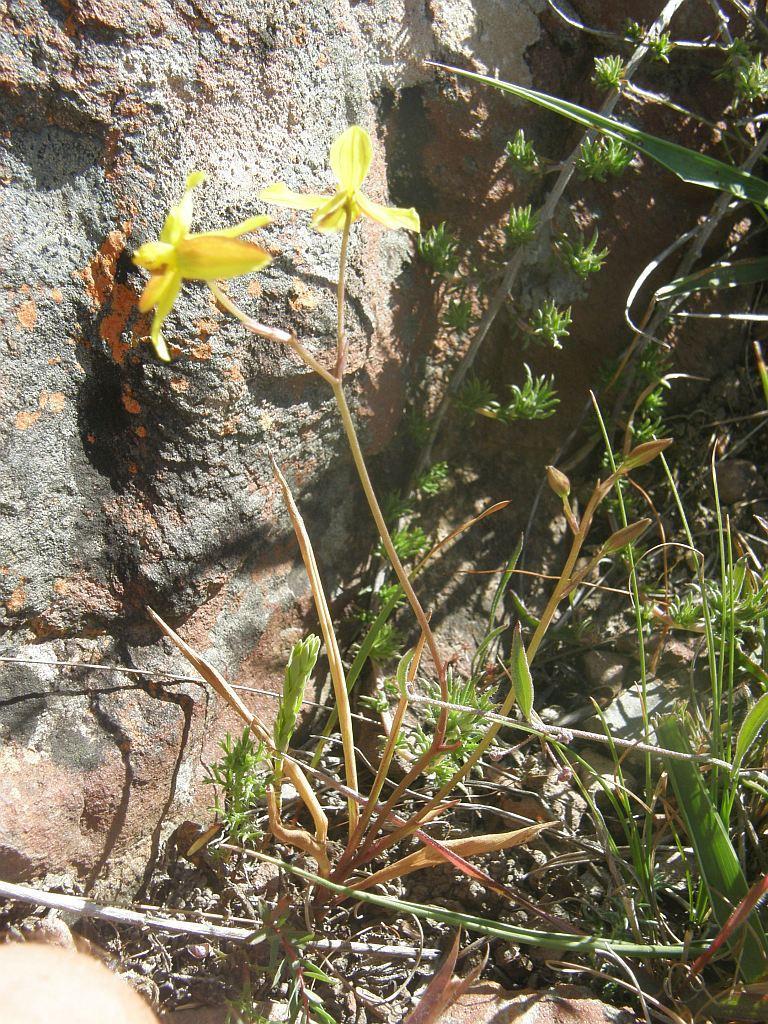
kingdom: Plantae
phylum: Tracheophyta
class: Liliopsida
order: Asparagales
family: Tecophilaeaceae
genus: Cyanella
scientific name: Cyanella lutea
